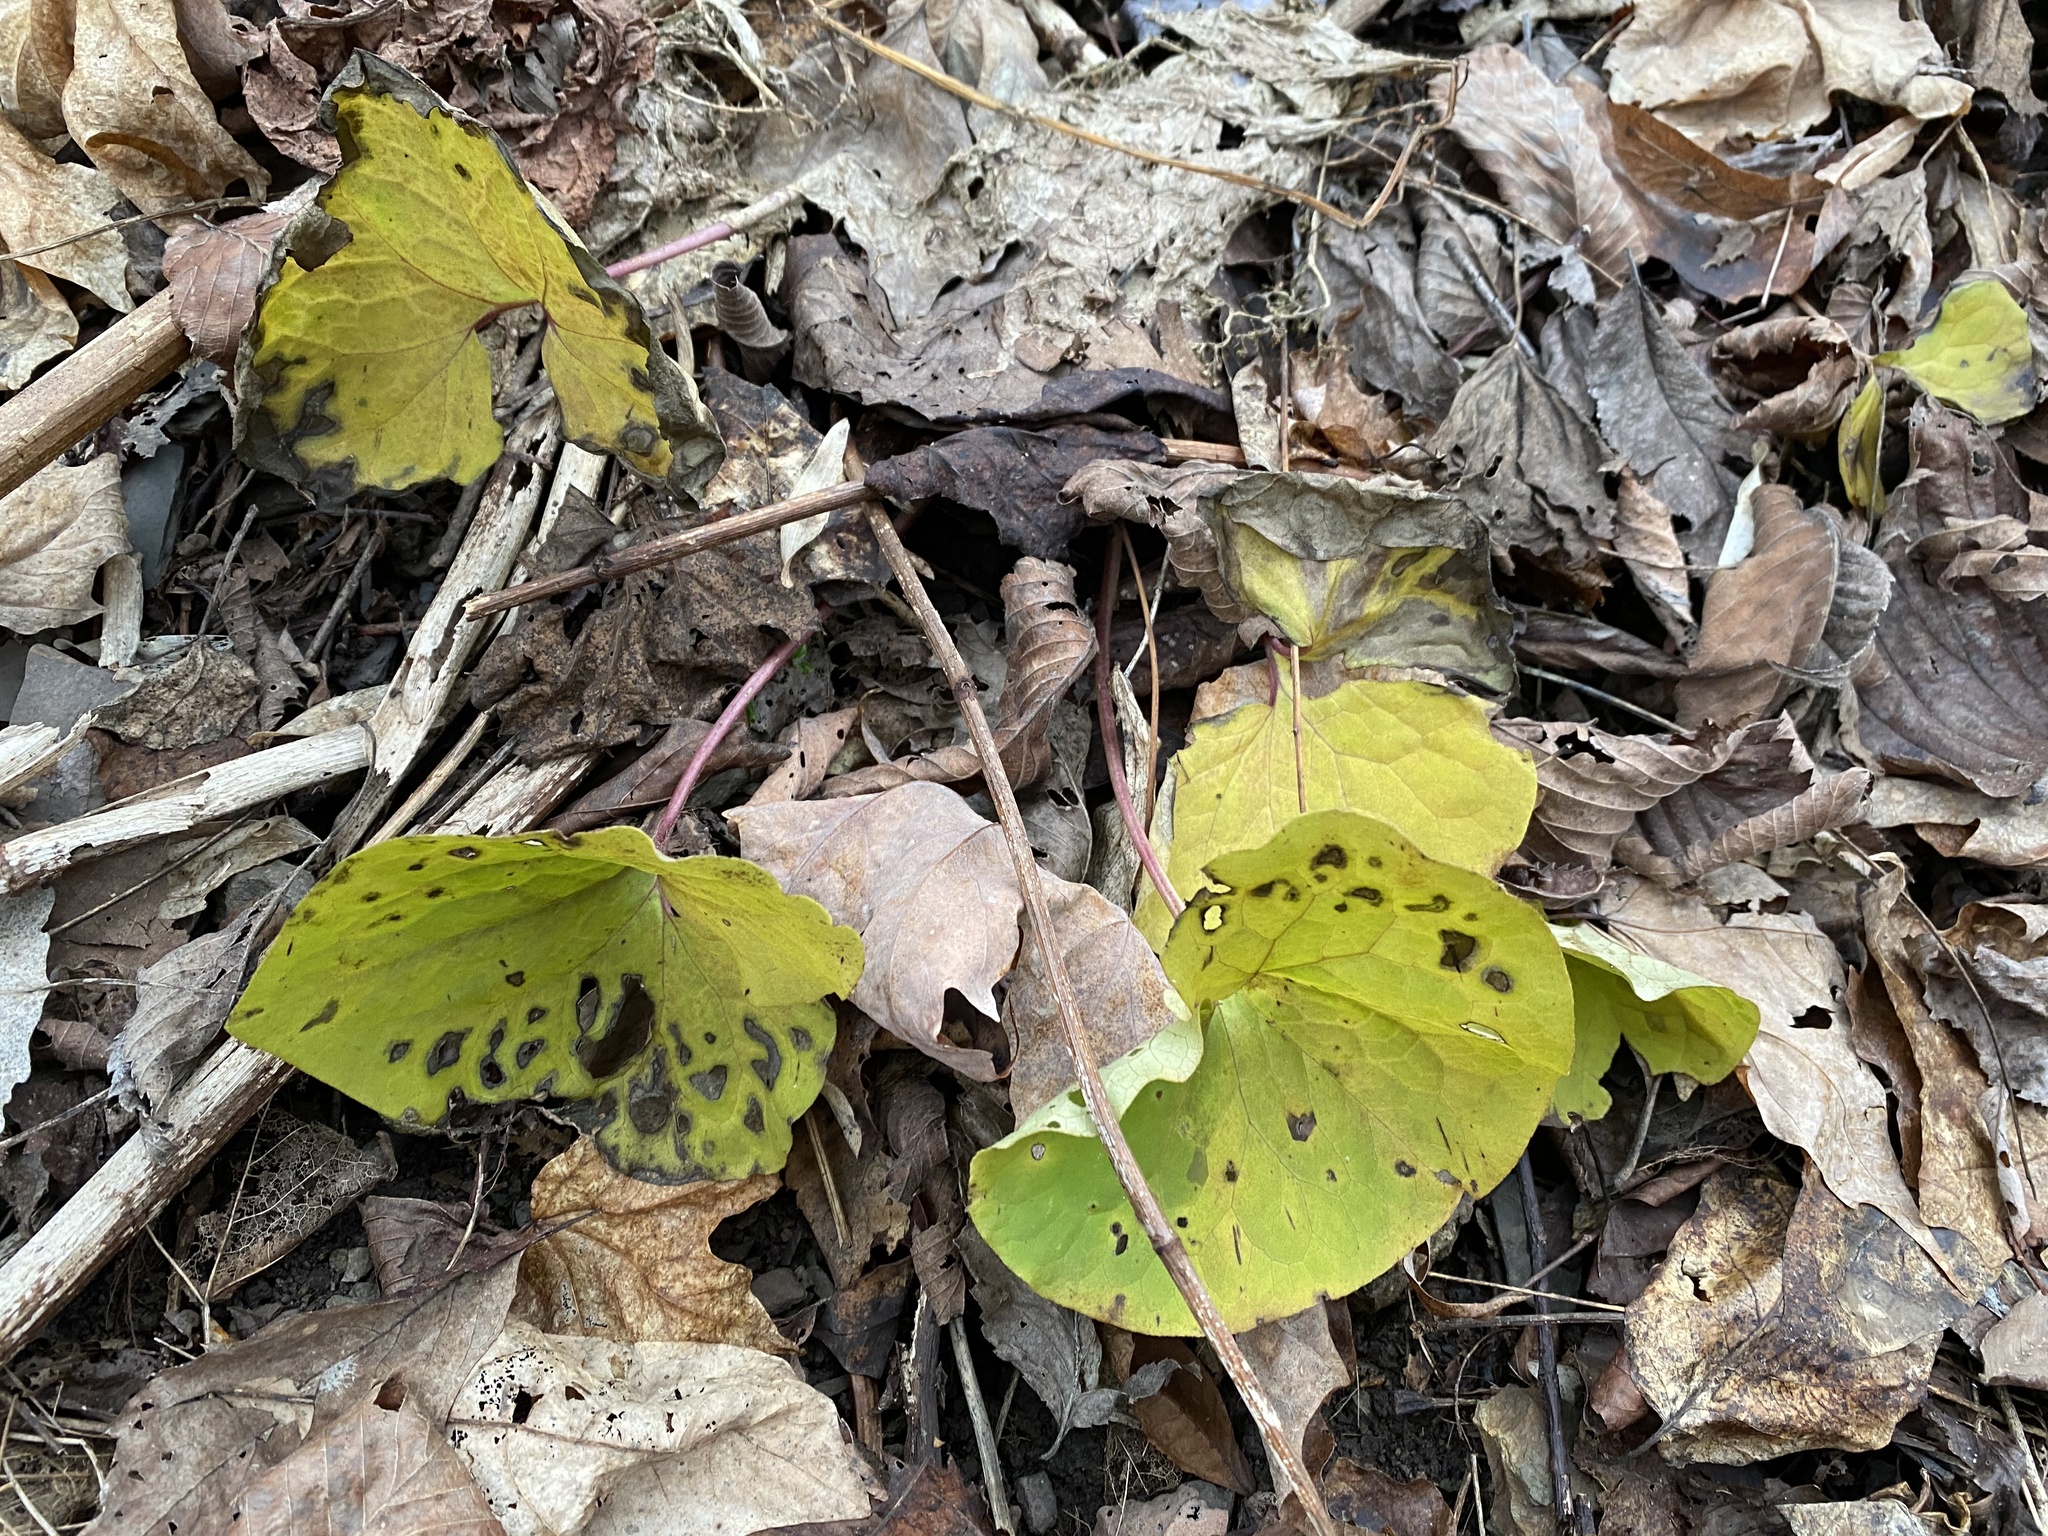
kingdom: Plantae
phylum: Tracheophyta
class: Magnoliopsida
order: Piperales
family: Aristolochiaceae
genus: Asarum
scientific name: Asarum canadense
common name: Wild ginger
